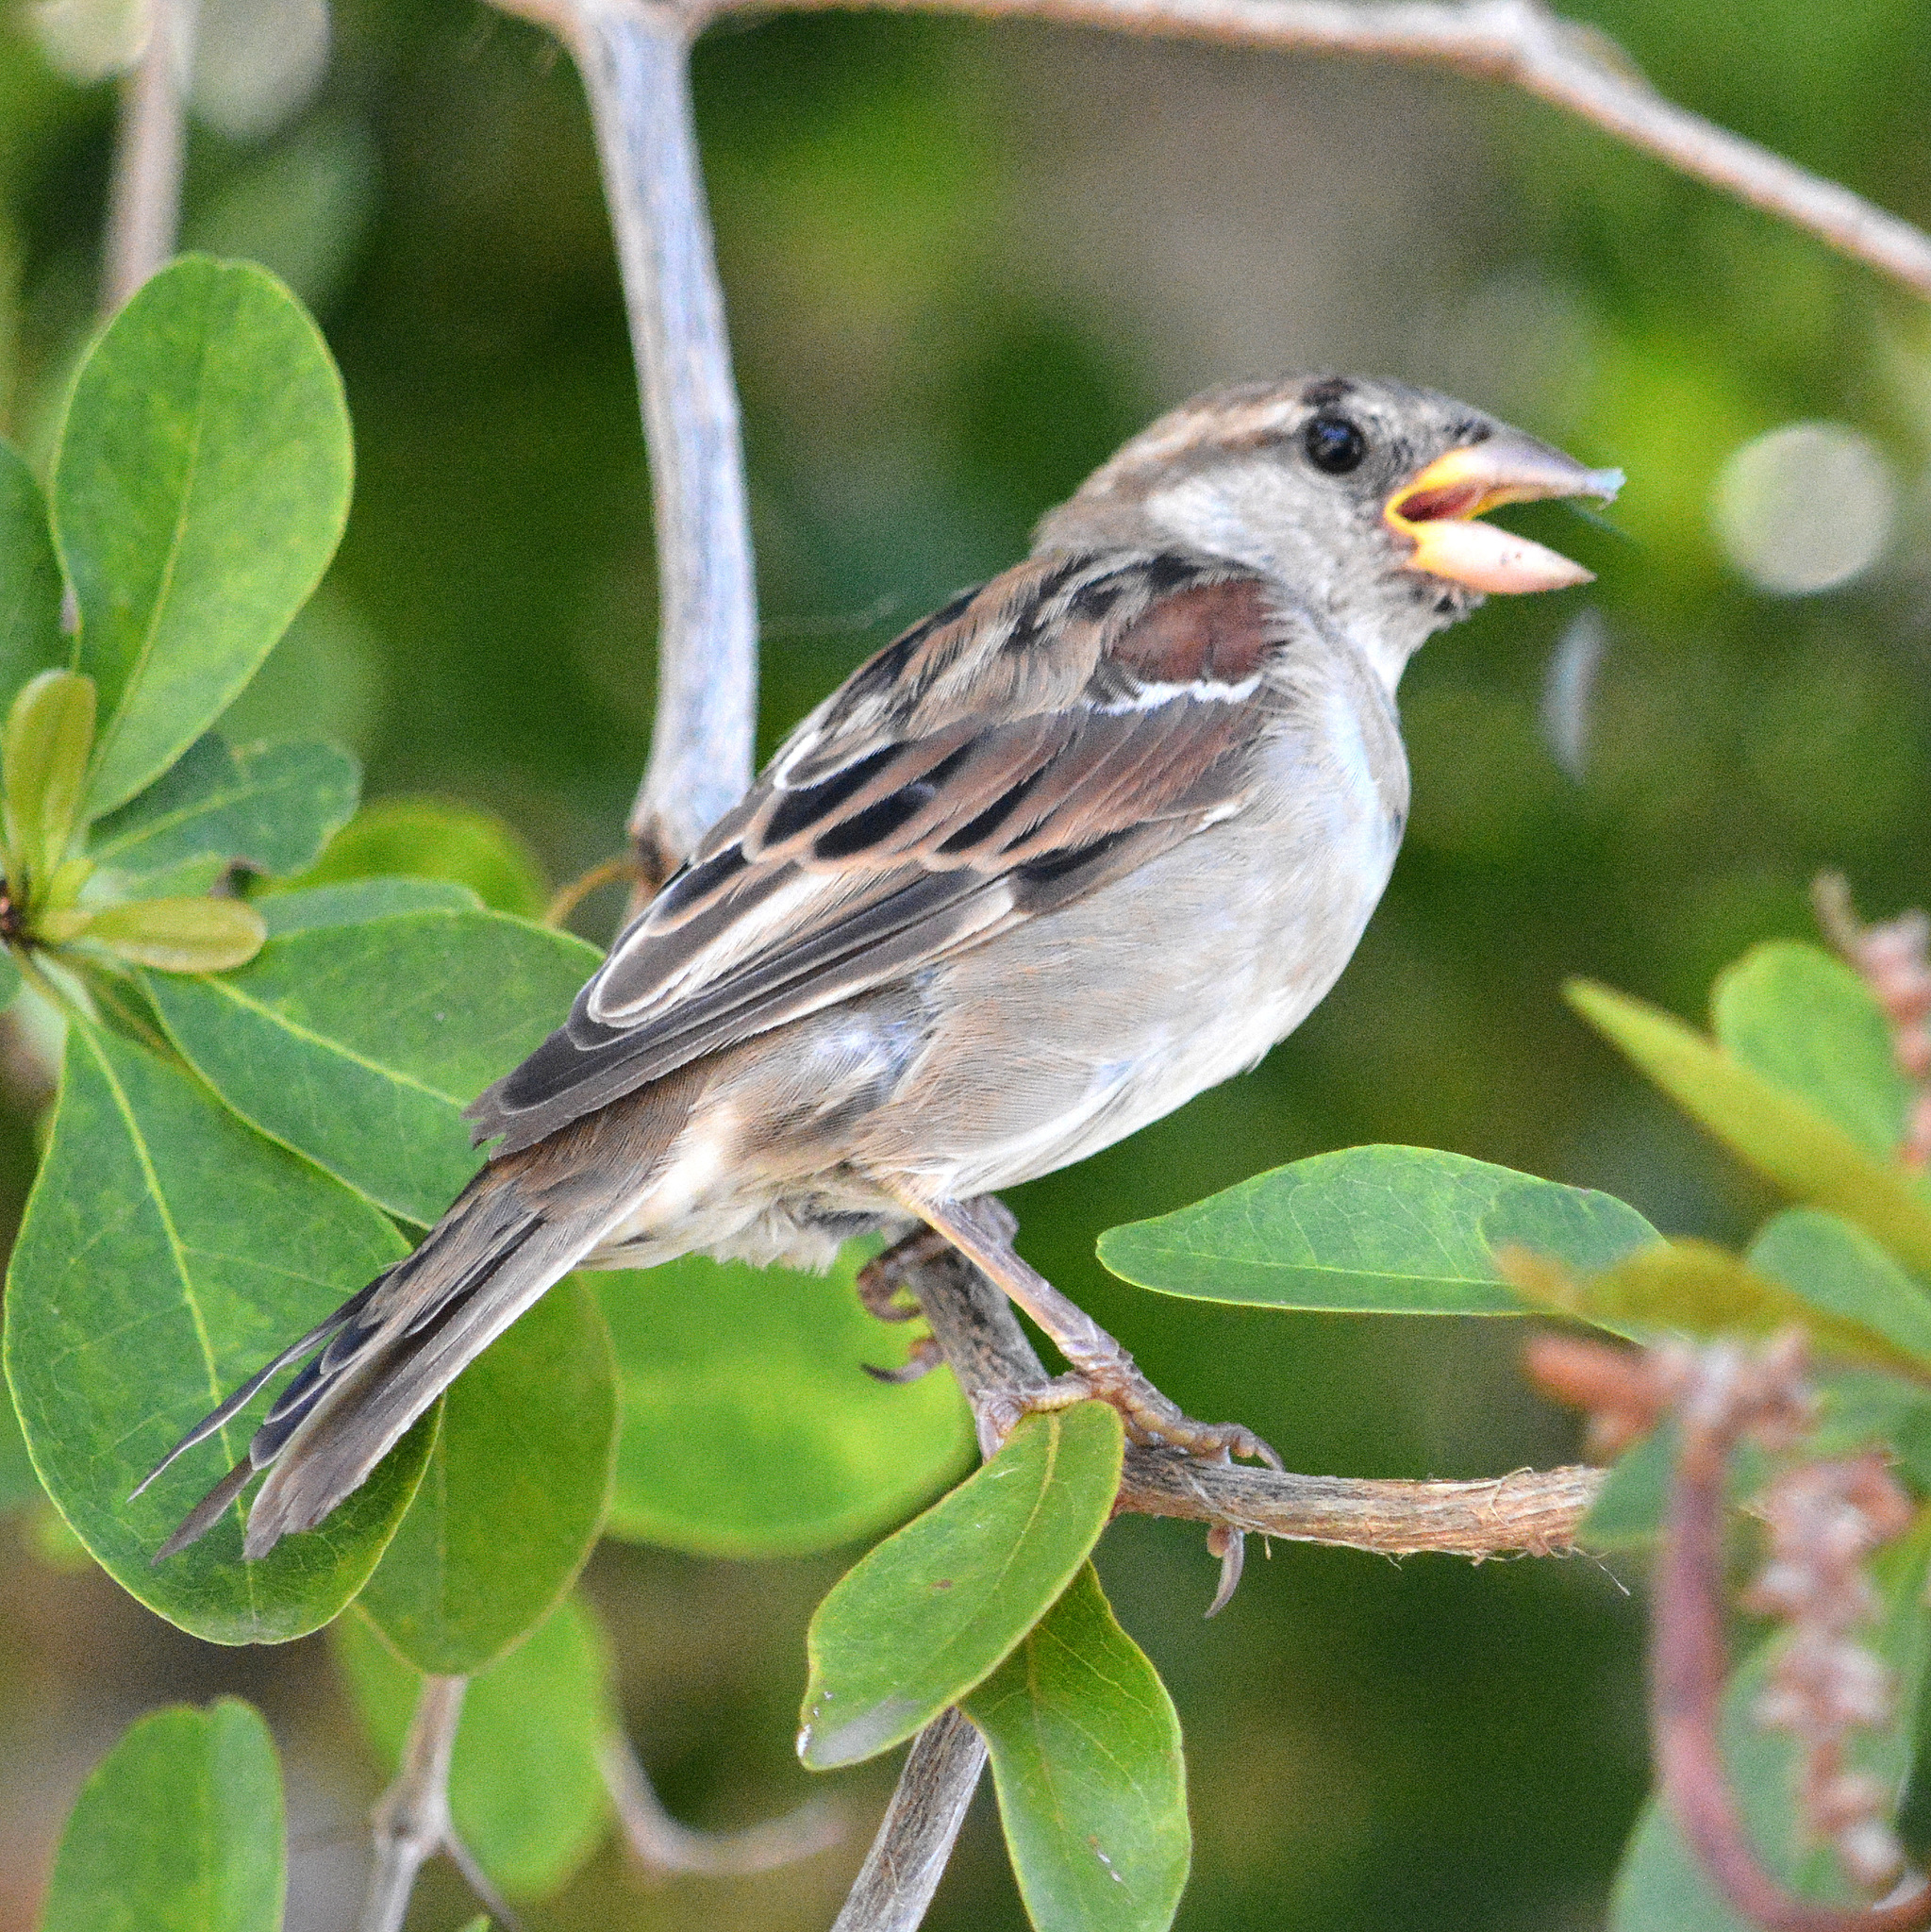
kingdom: Animalia
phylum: Chordata
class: Aves
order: Passeriformes
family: Passeridae
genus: Passer
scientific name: Passer domesticus
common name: House sparrow
